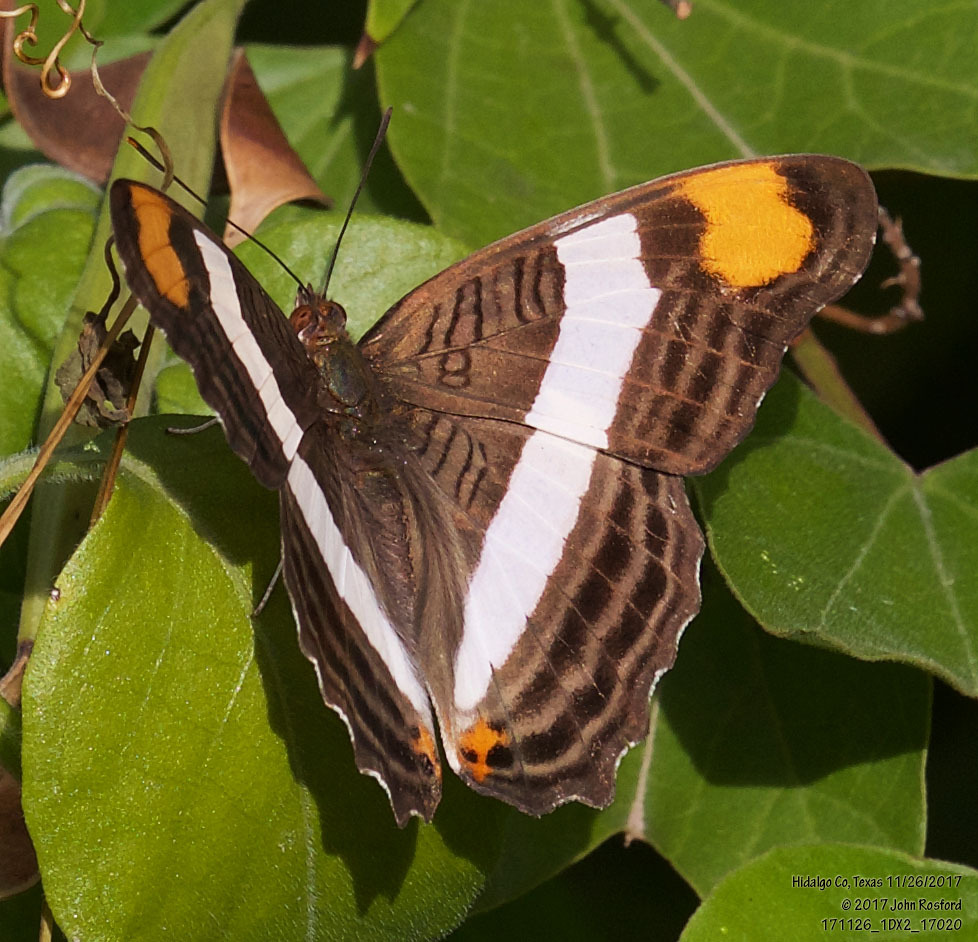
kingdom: Animalia
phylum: Arthropoda
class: Insecta
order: Lepidoptera
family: Nymphalidae
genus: Limenitis
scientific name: Limenitis fessonia
